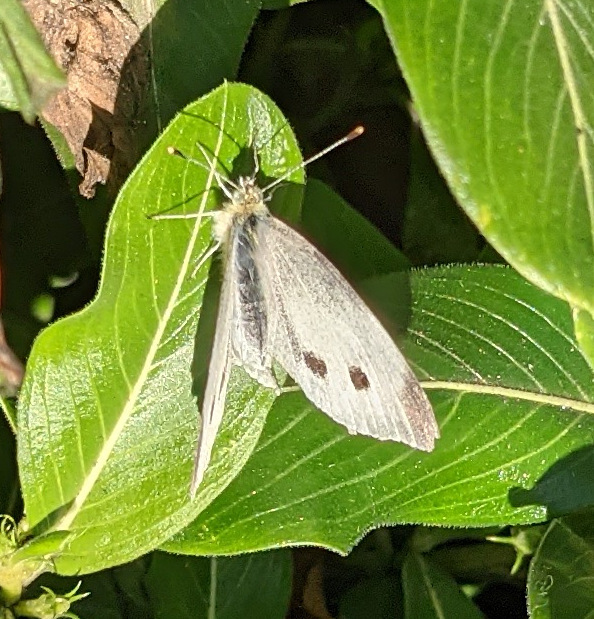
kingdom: Animalia
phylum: Arthropoda
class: Insecta
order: Lepidoptera
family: Pieridae
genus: Pieris
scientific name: Pieris rapae
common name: Small white
